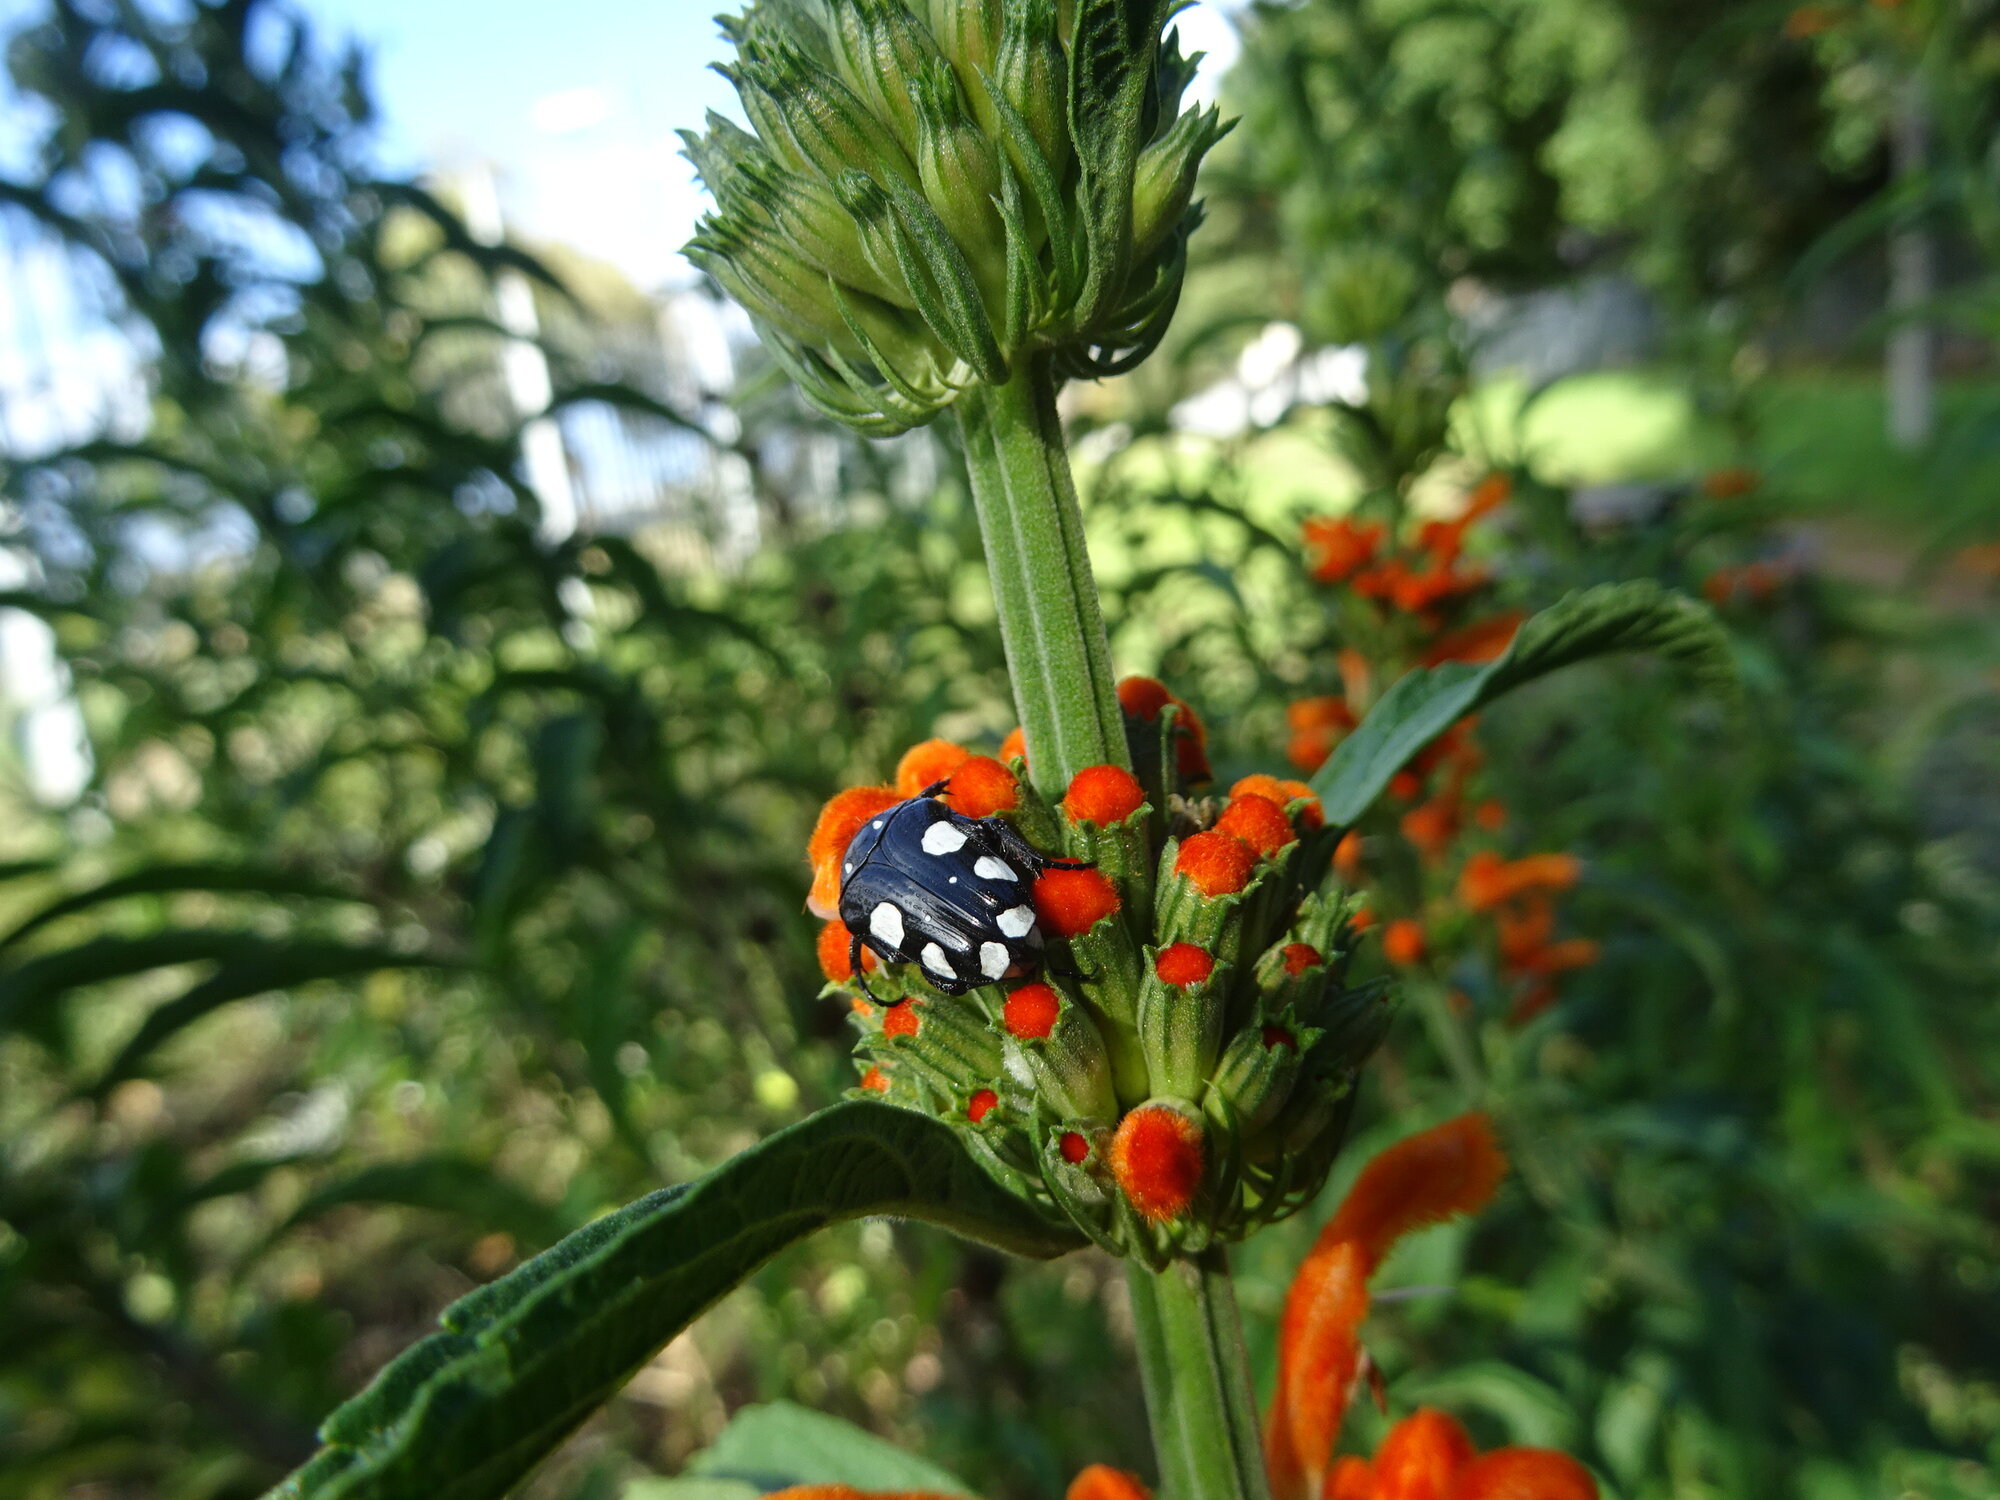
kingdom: Animalia
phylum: Arthropoda
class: Insecta
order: Coleoptera
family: Scarabaeidae
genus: Mausoleopsis
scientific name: Mausoleopsis amabilis
